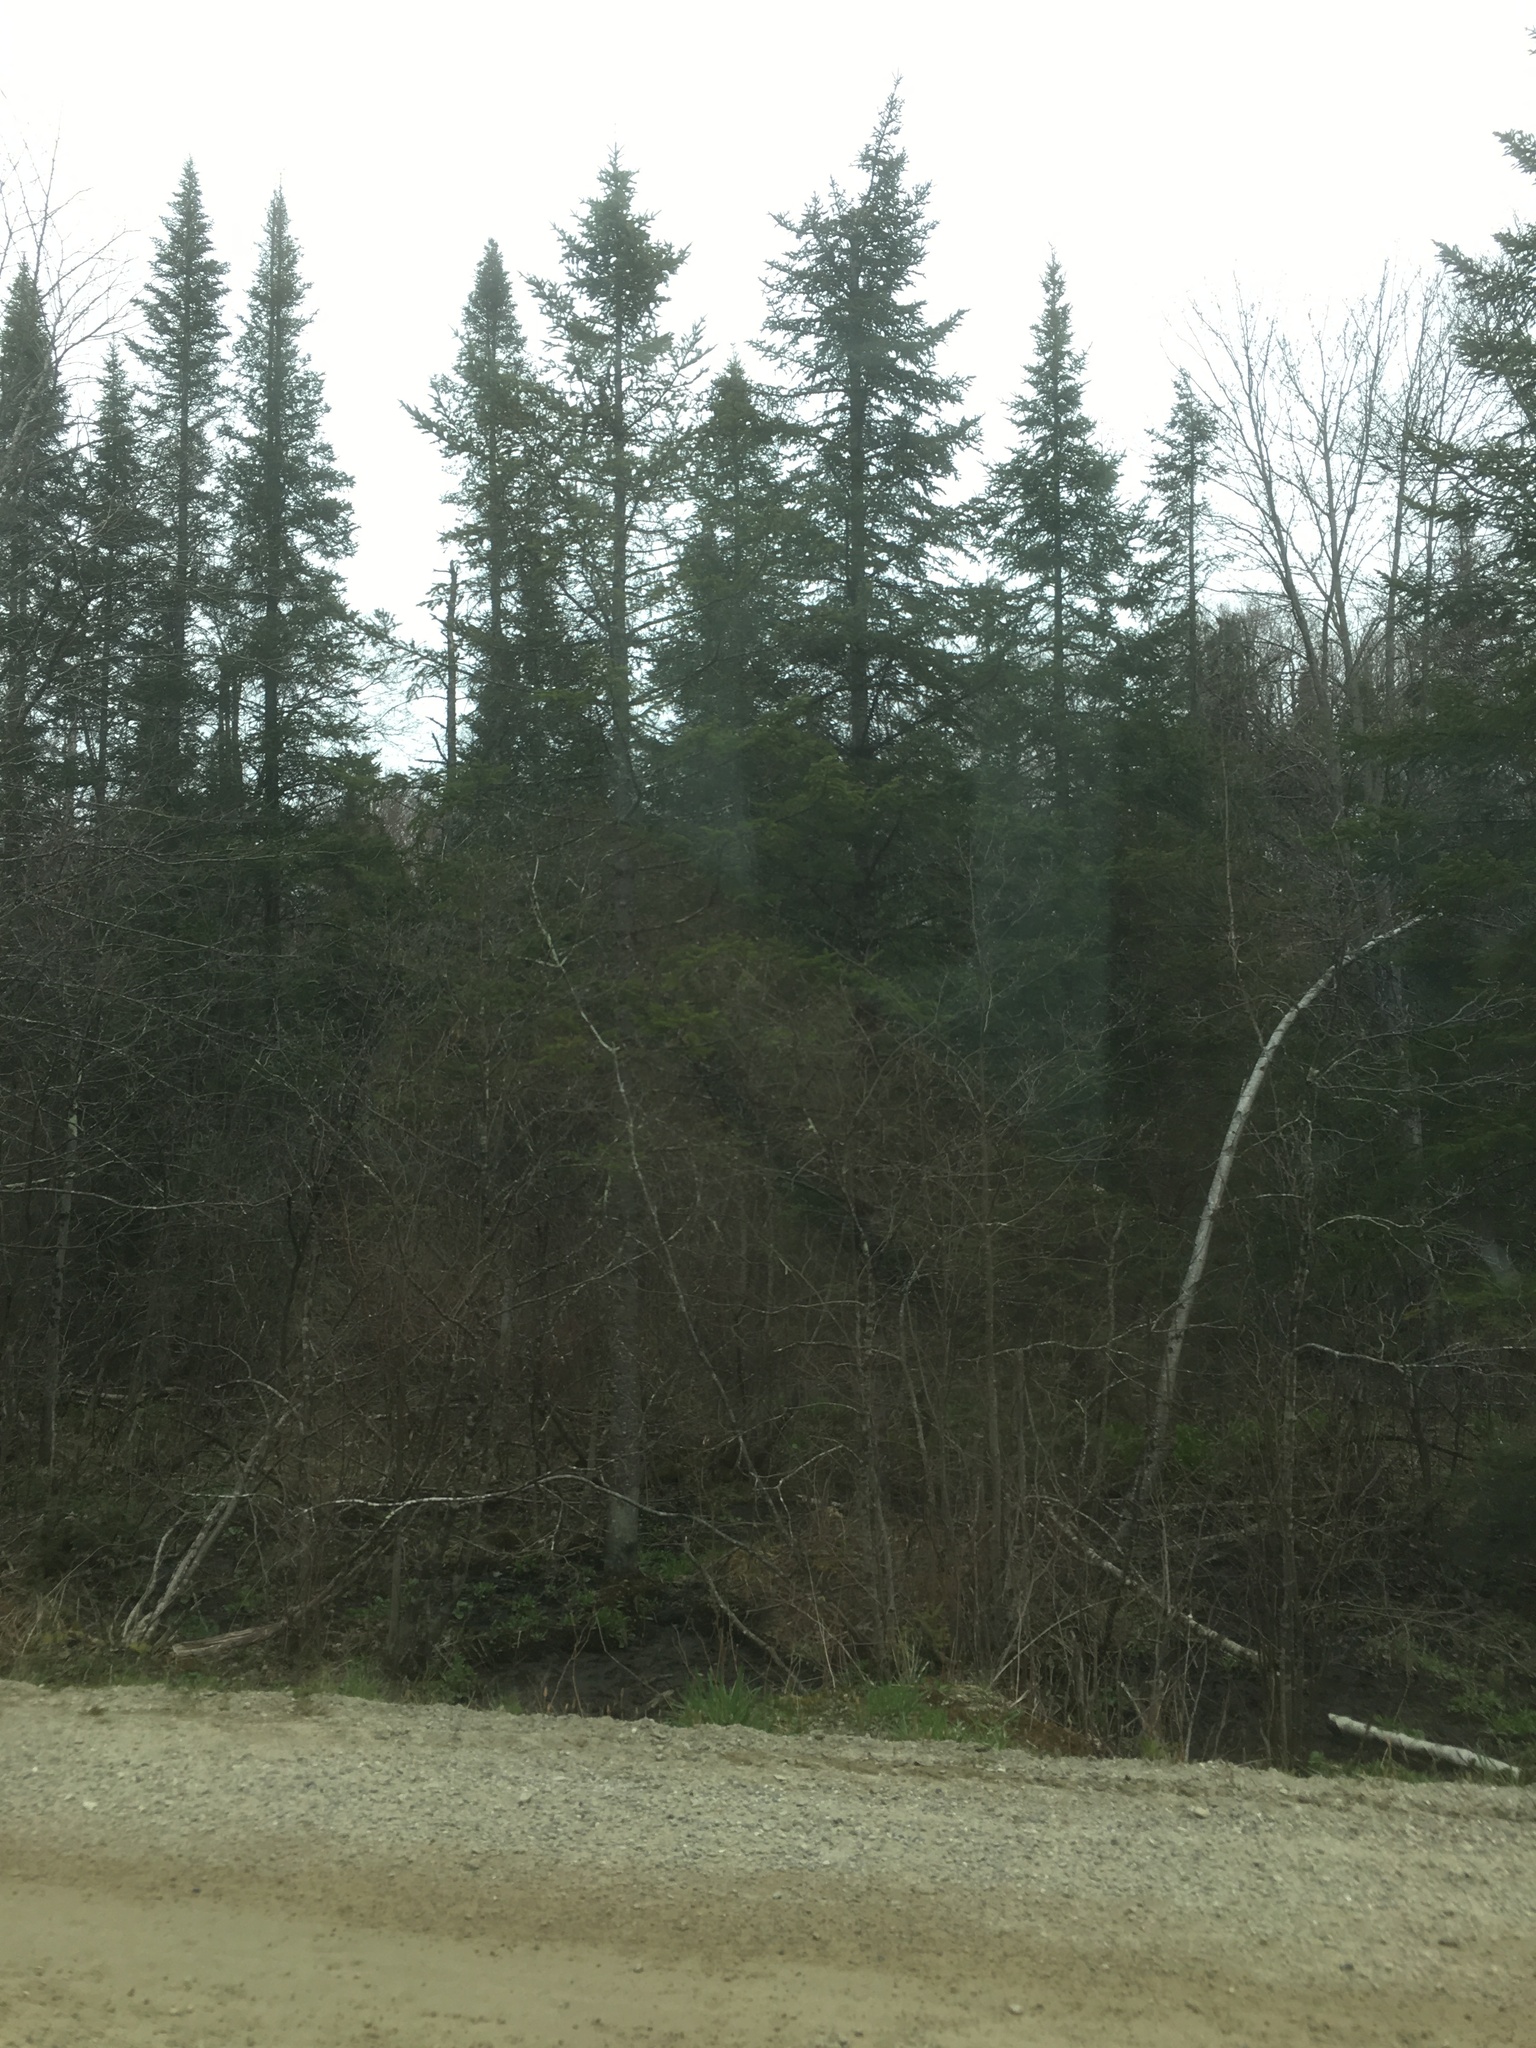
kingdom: Plantae
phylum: Tracheophyta
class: Pinopsida
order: Pinales
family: Pinaceae
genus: Abies
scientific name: Abies balsamea
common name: Balsam fir
